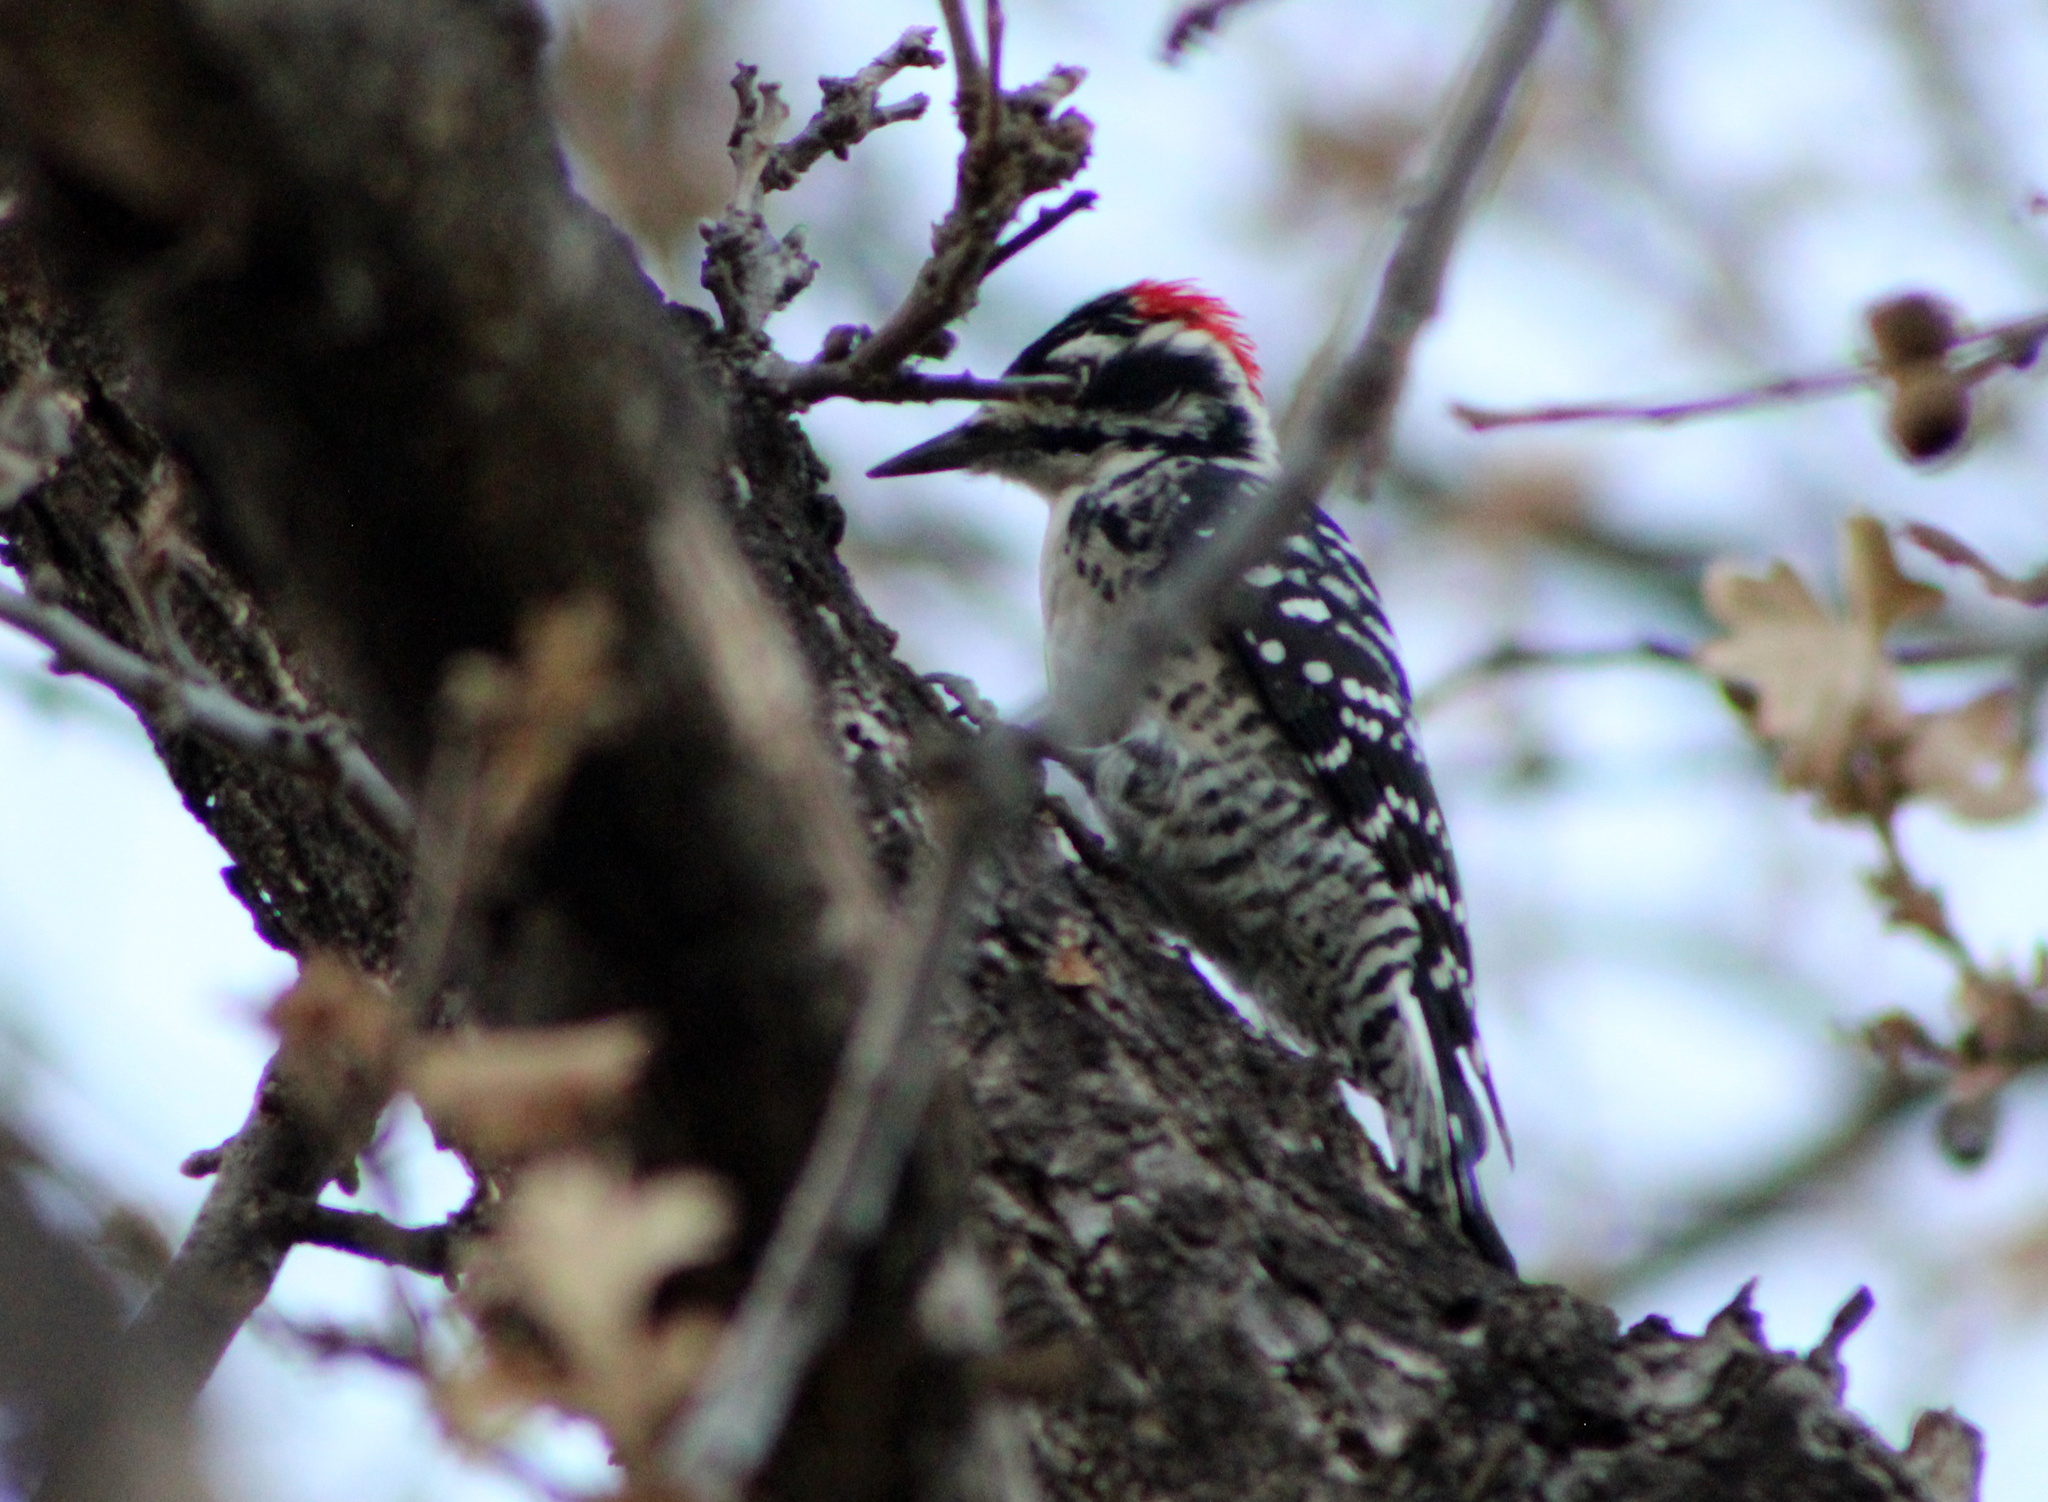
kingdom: Animalia
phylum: Chordata
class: Aves
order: Piciformes
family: Picidae
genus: Dryobates
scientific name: Dryobates nuttallii
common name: Nuttall's woodpecker
